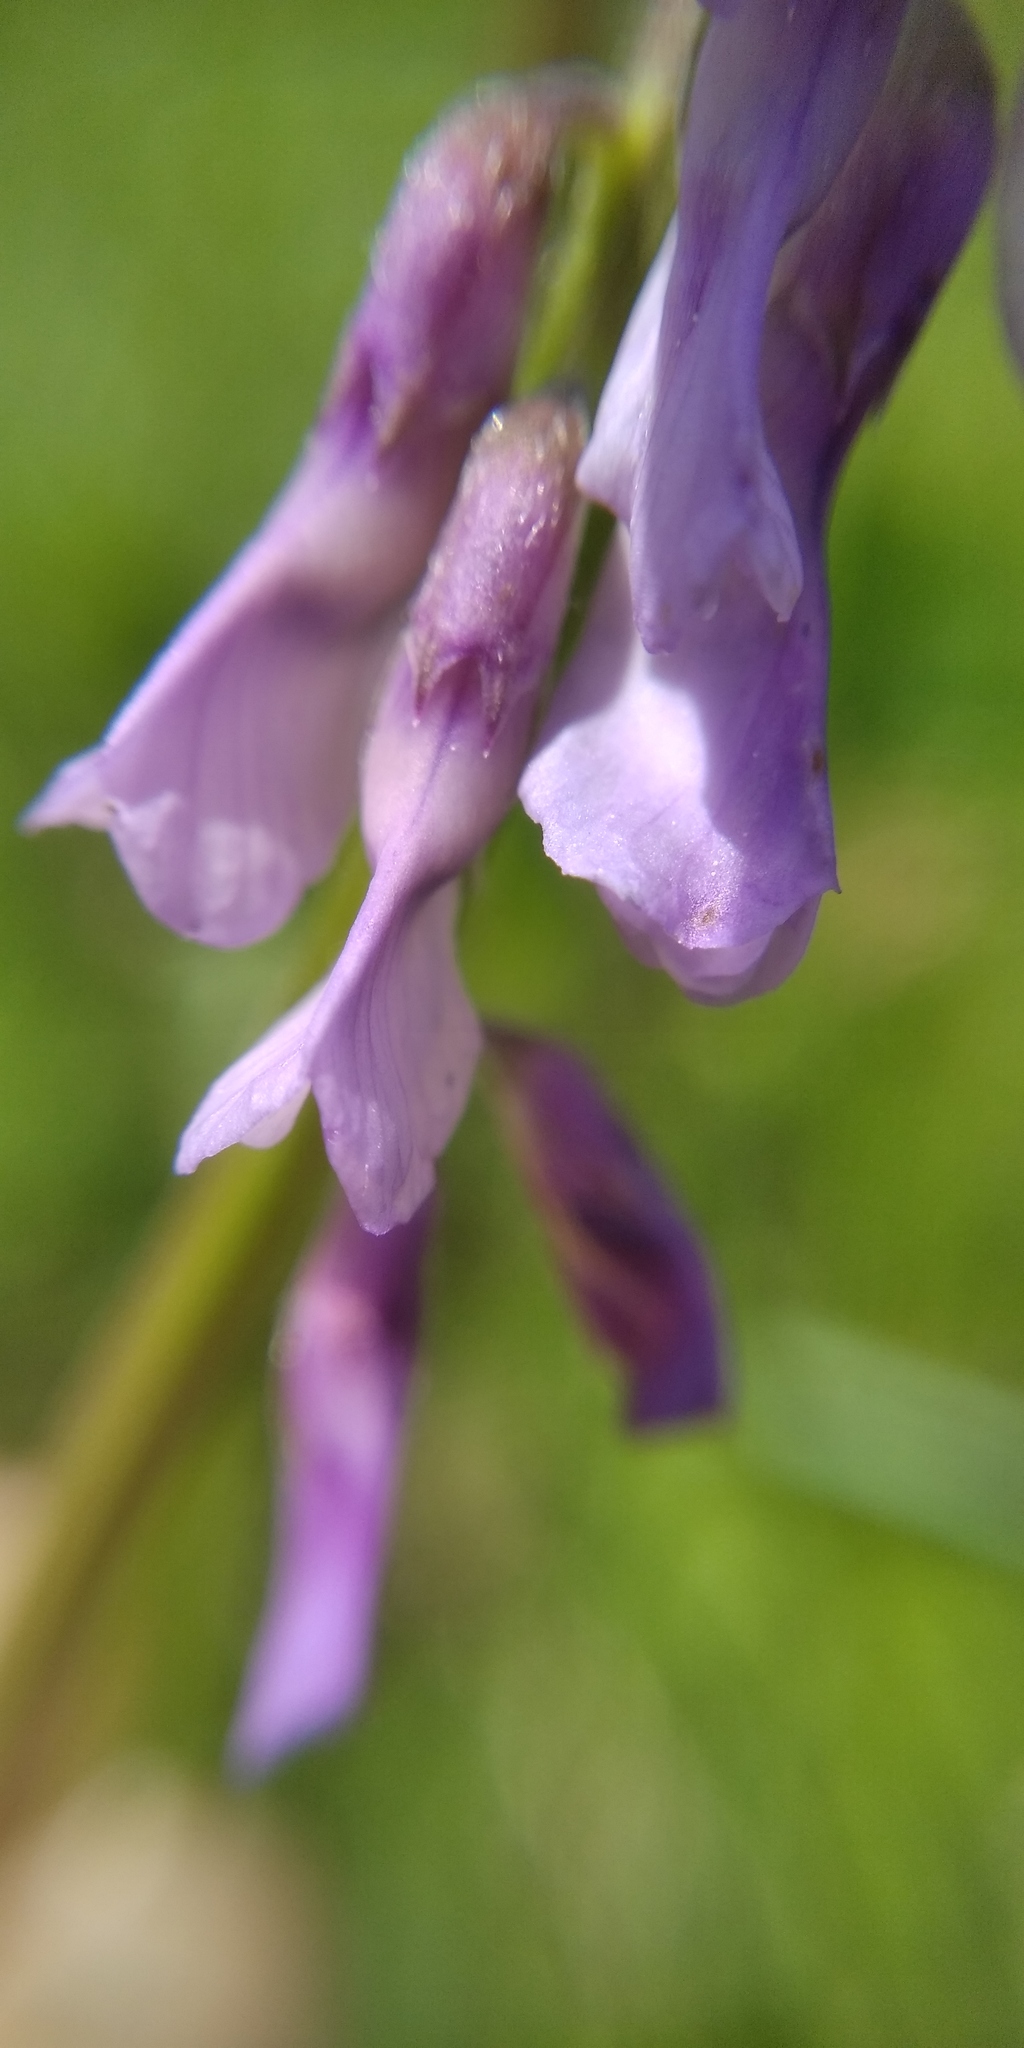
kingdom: Plantae
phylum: Tracheophyta
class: Magnoliopsida
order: Fabales
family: Fabaceae
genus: Vicia
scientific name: Vicia tenuifolia
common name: Fine-leaved vetch
